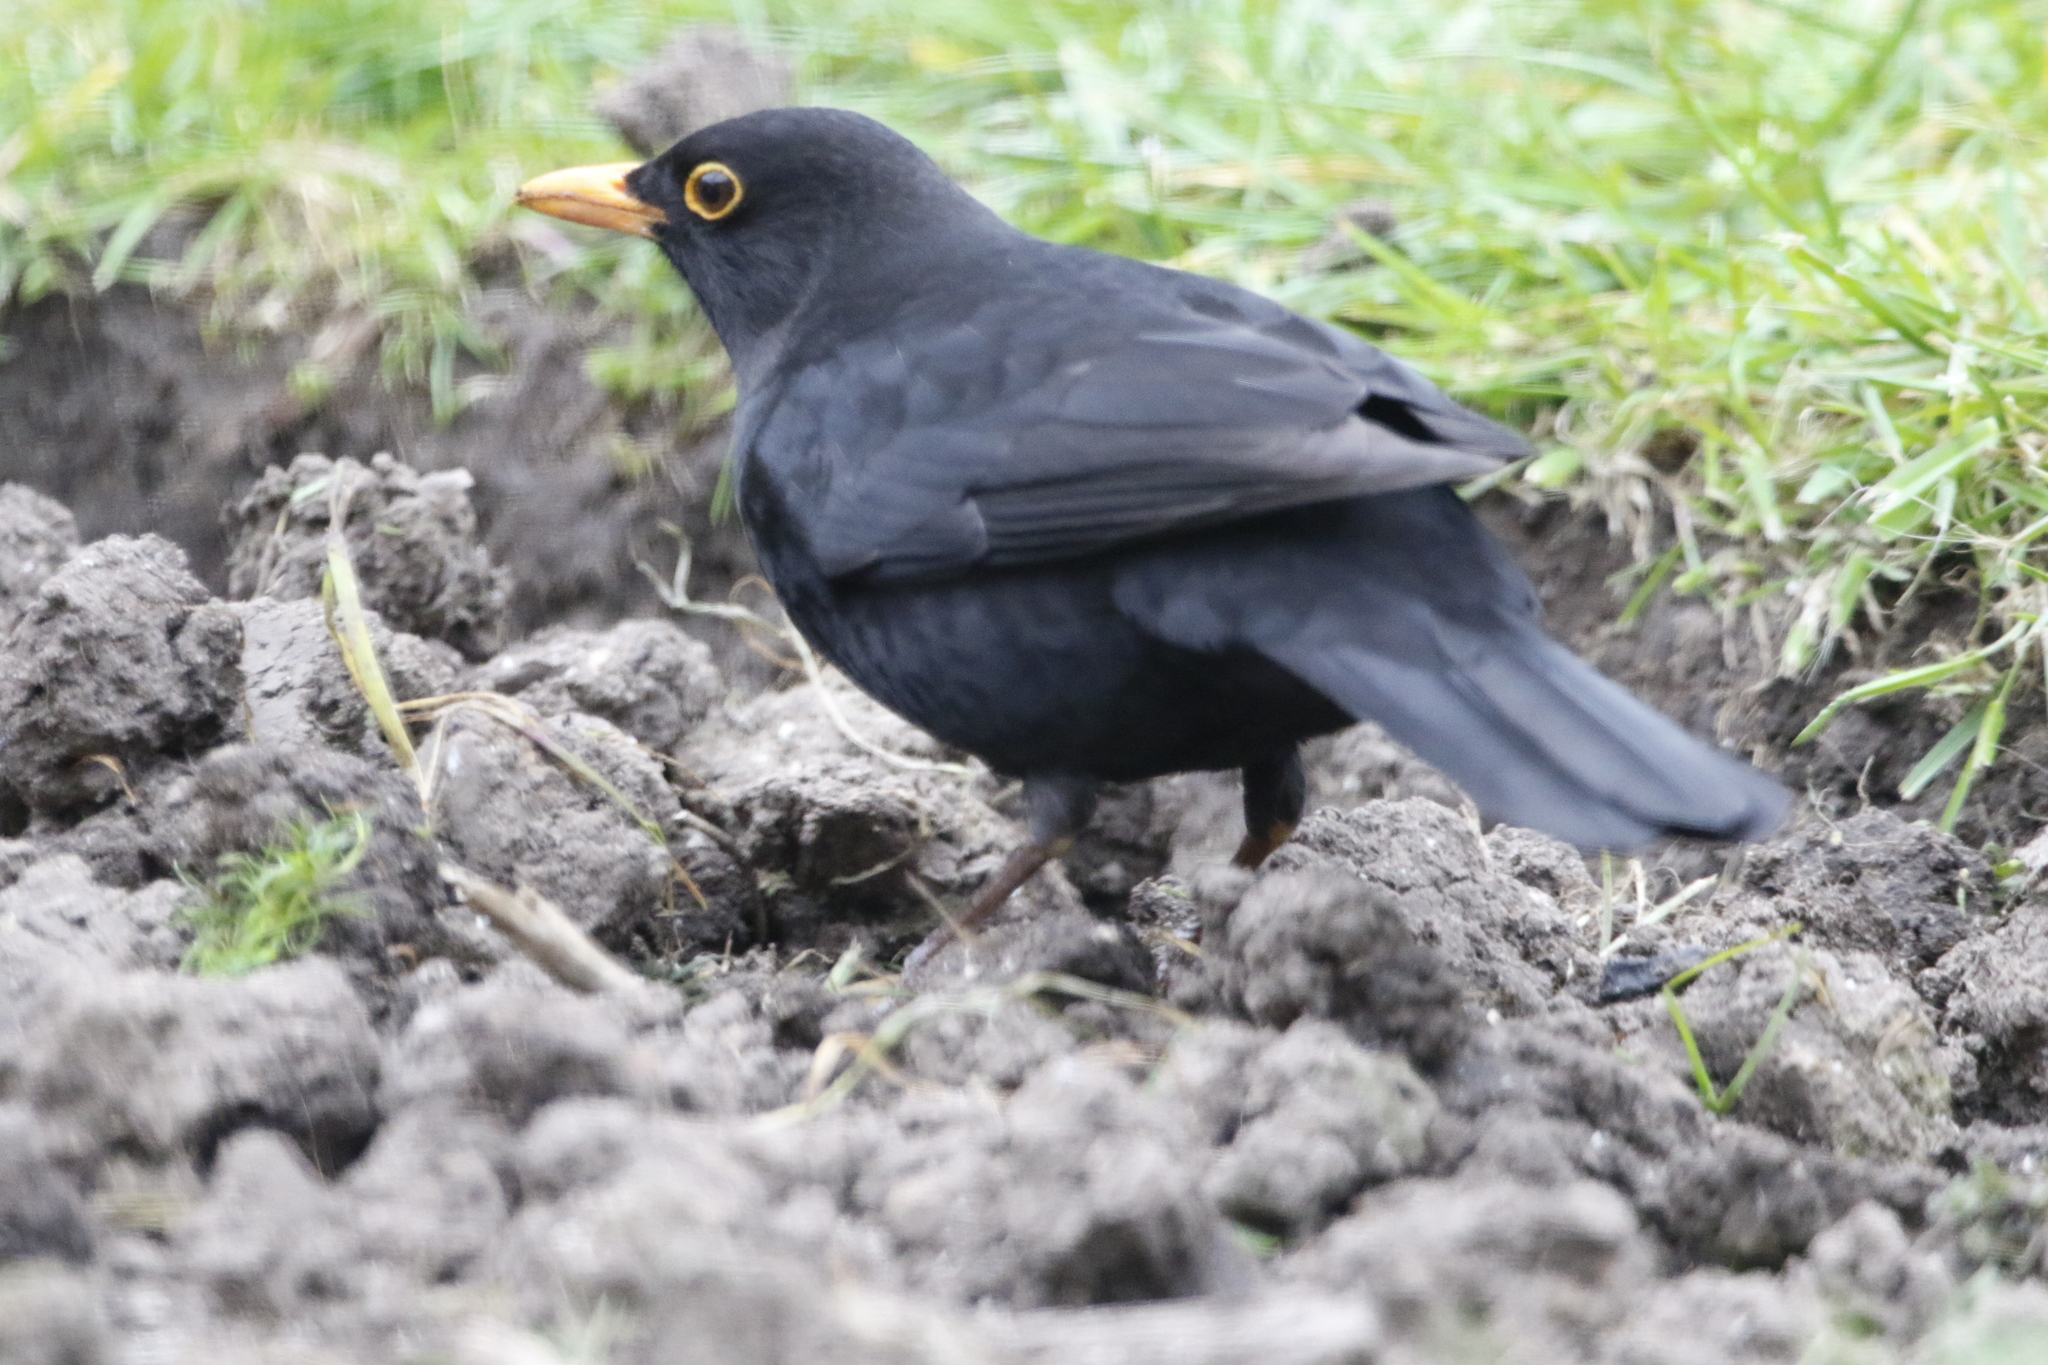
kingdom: Animalia
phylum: Chordata
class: Aves
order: Passeriformes
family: Turdidae
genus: Turdus
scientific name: Turdus merula
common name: Common blackbird
